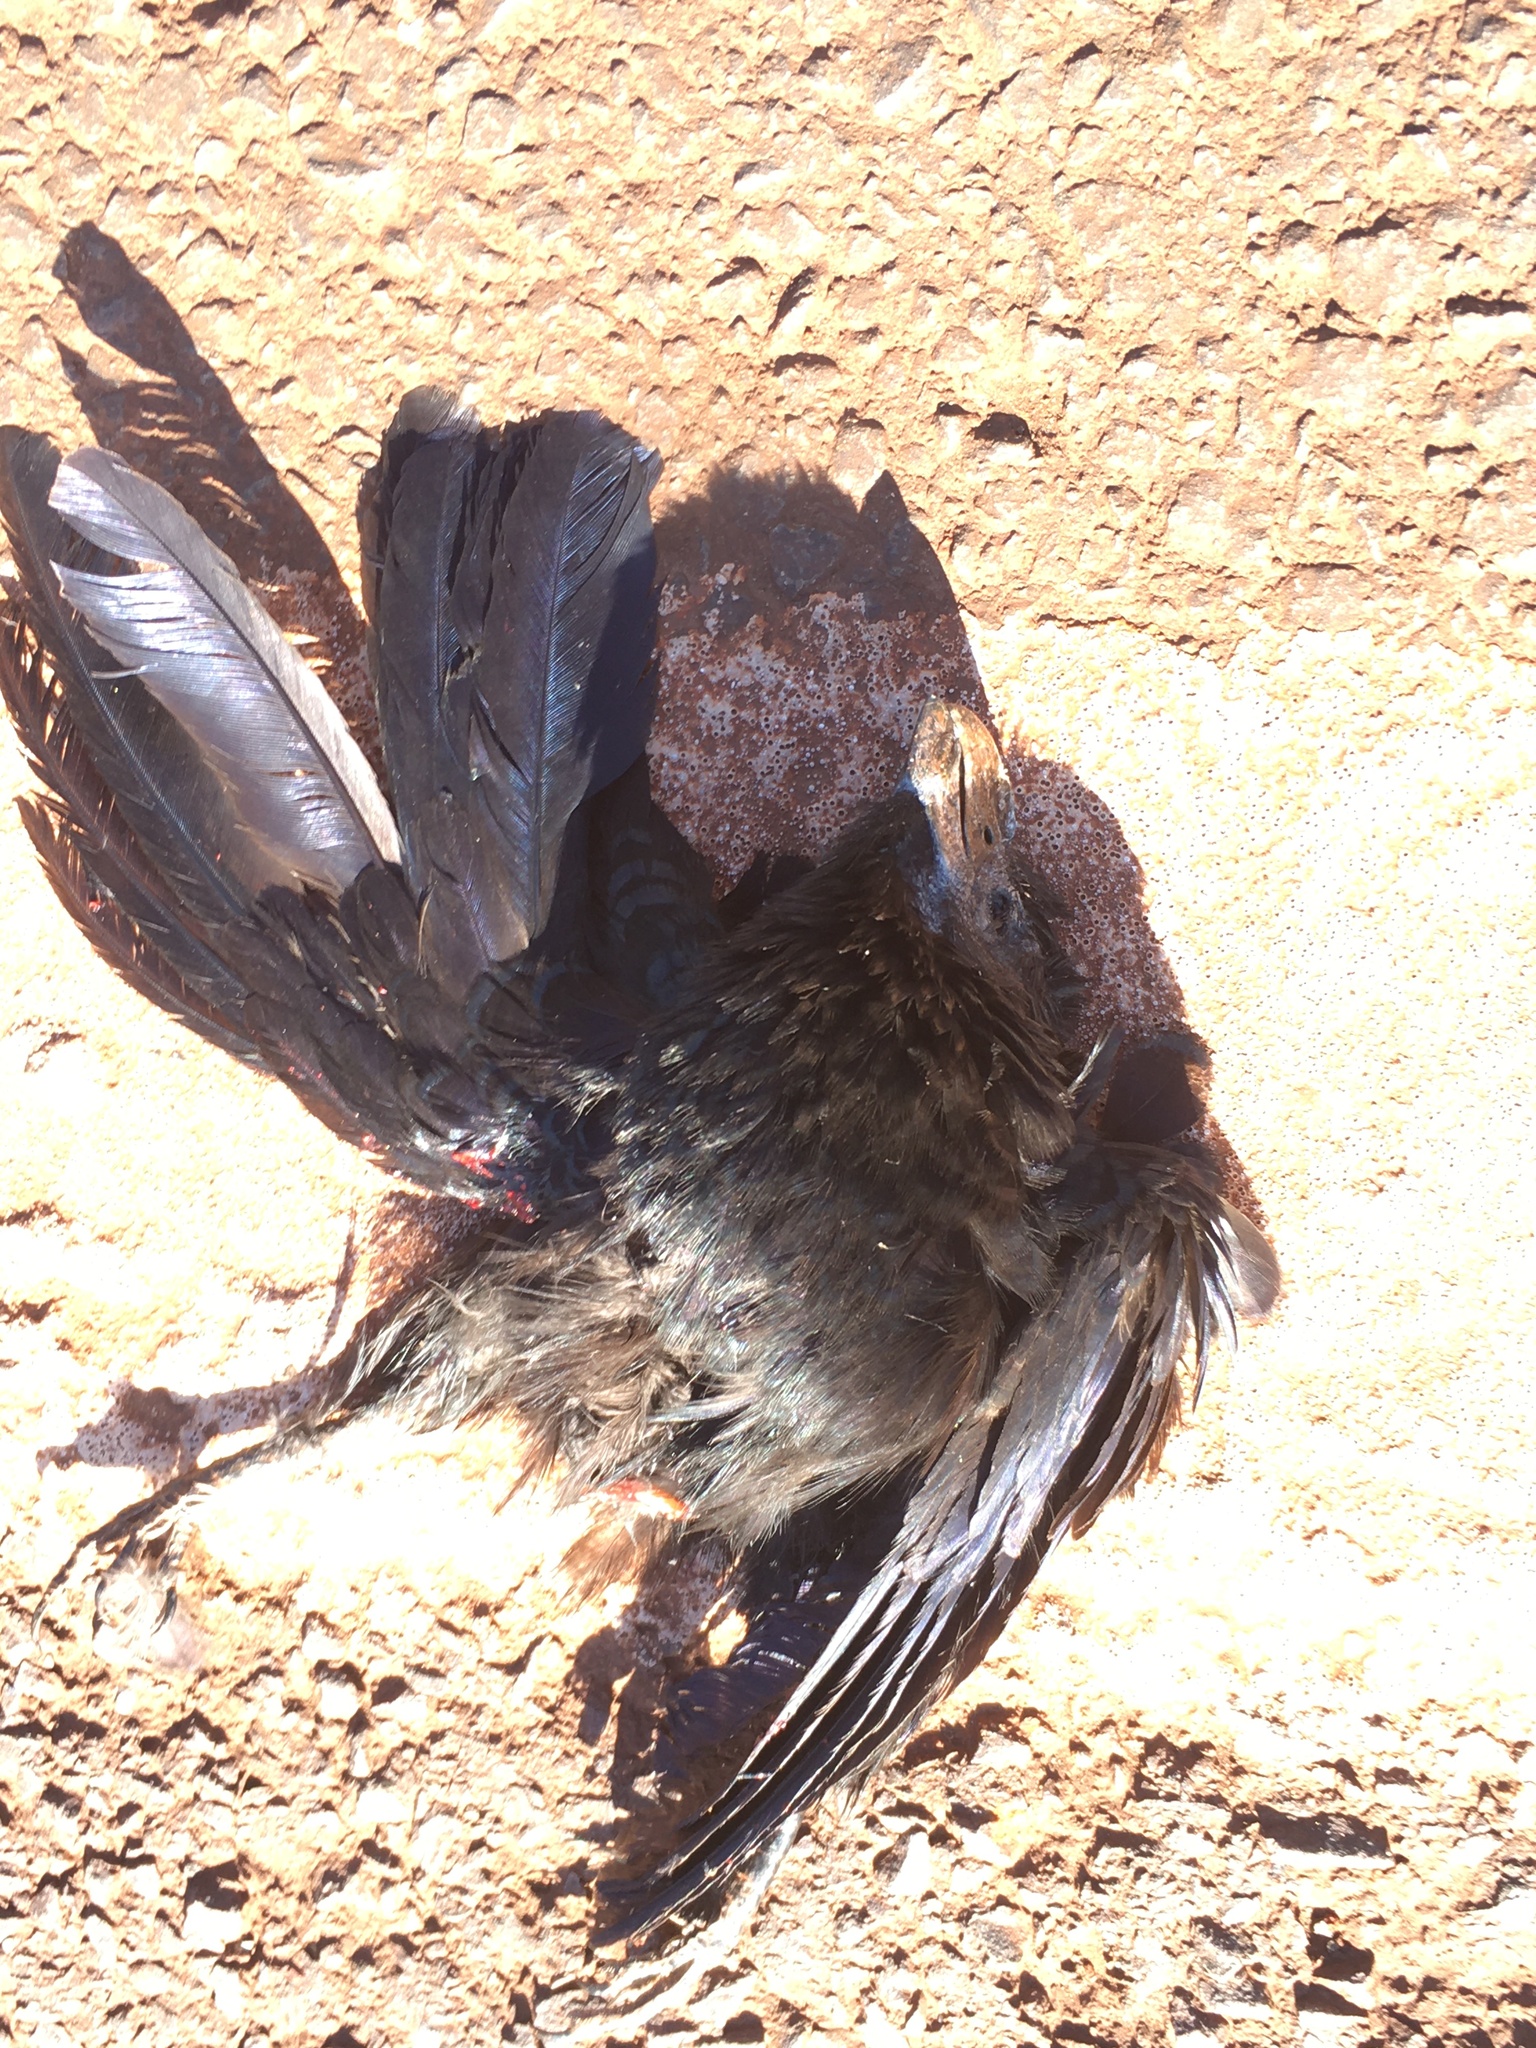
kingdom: Animalia
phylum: Chordata
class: Aves
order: Cuculiformes
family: Cuculidae
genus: Crotophaga
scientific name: Crotophaga ani
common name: Smooth-billed ani
